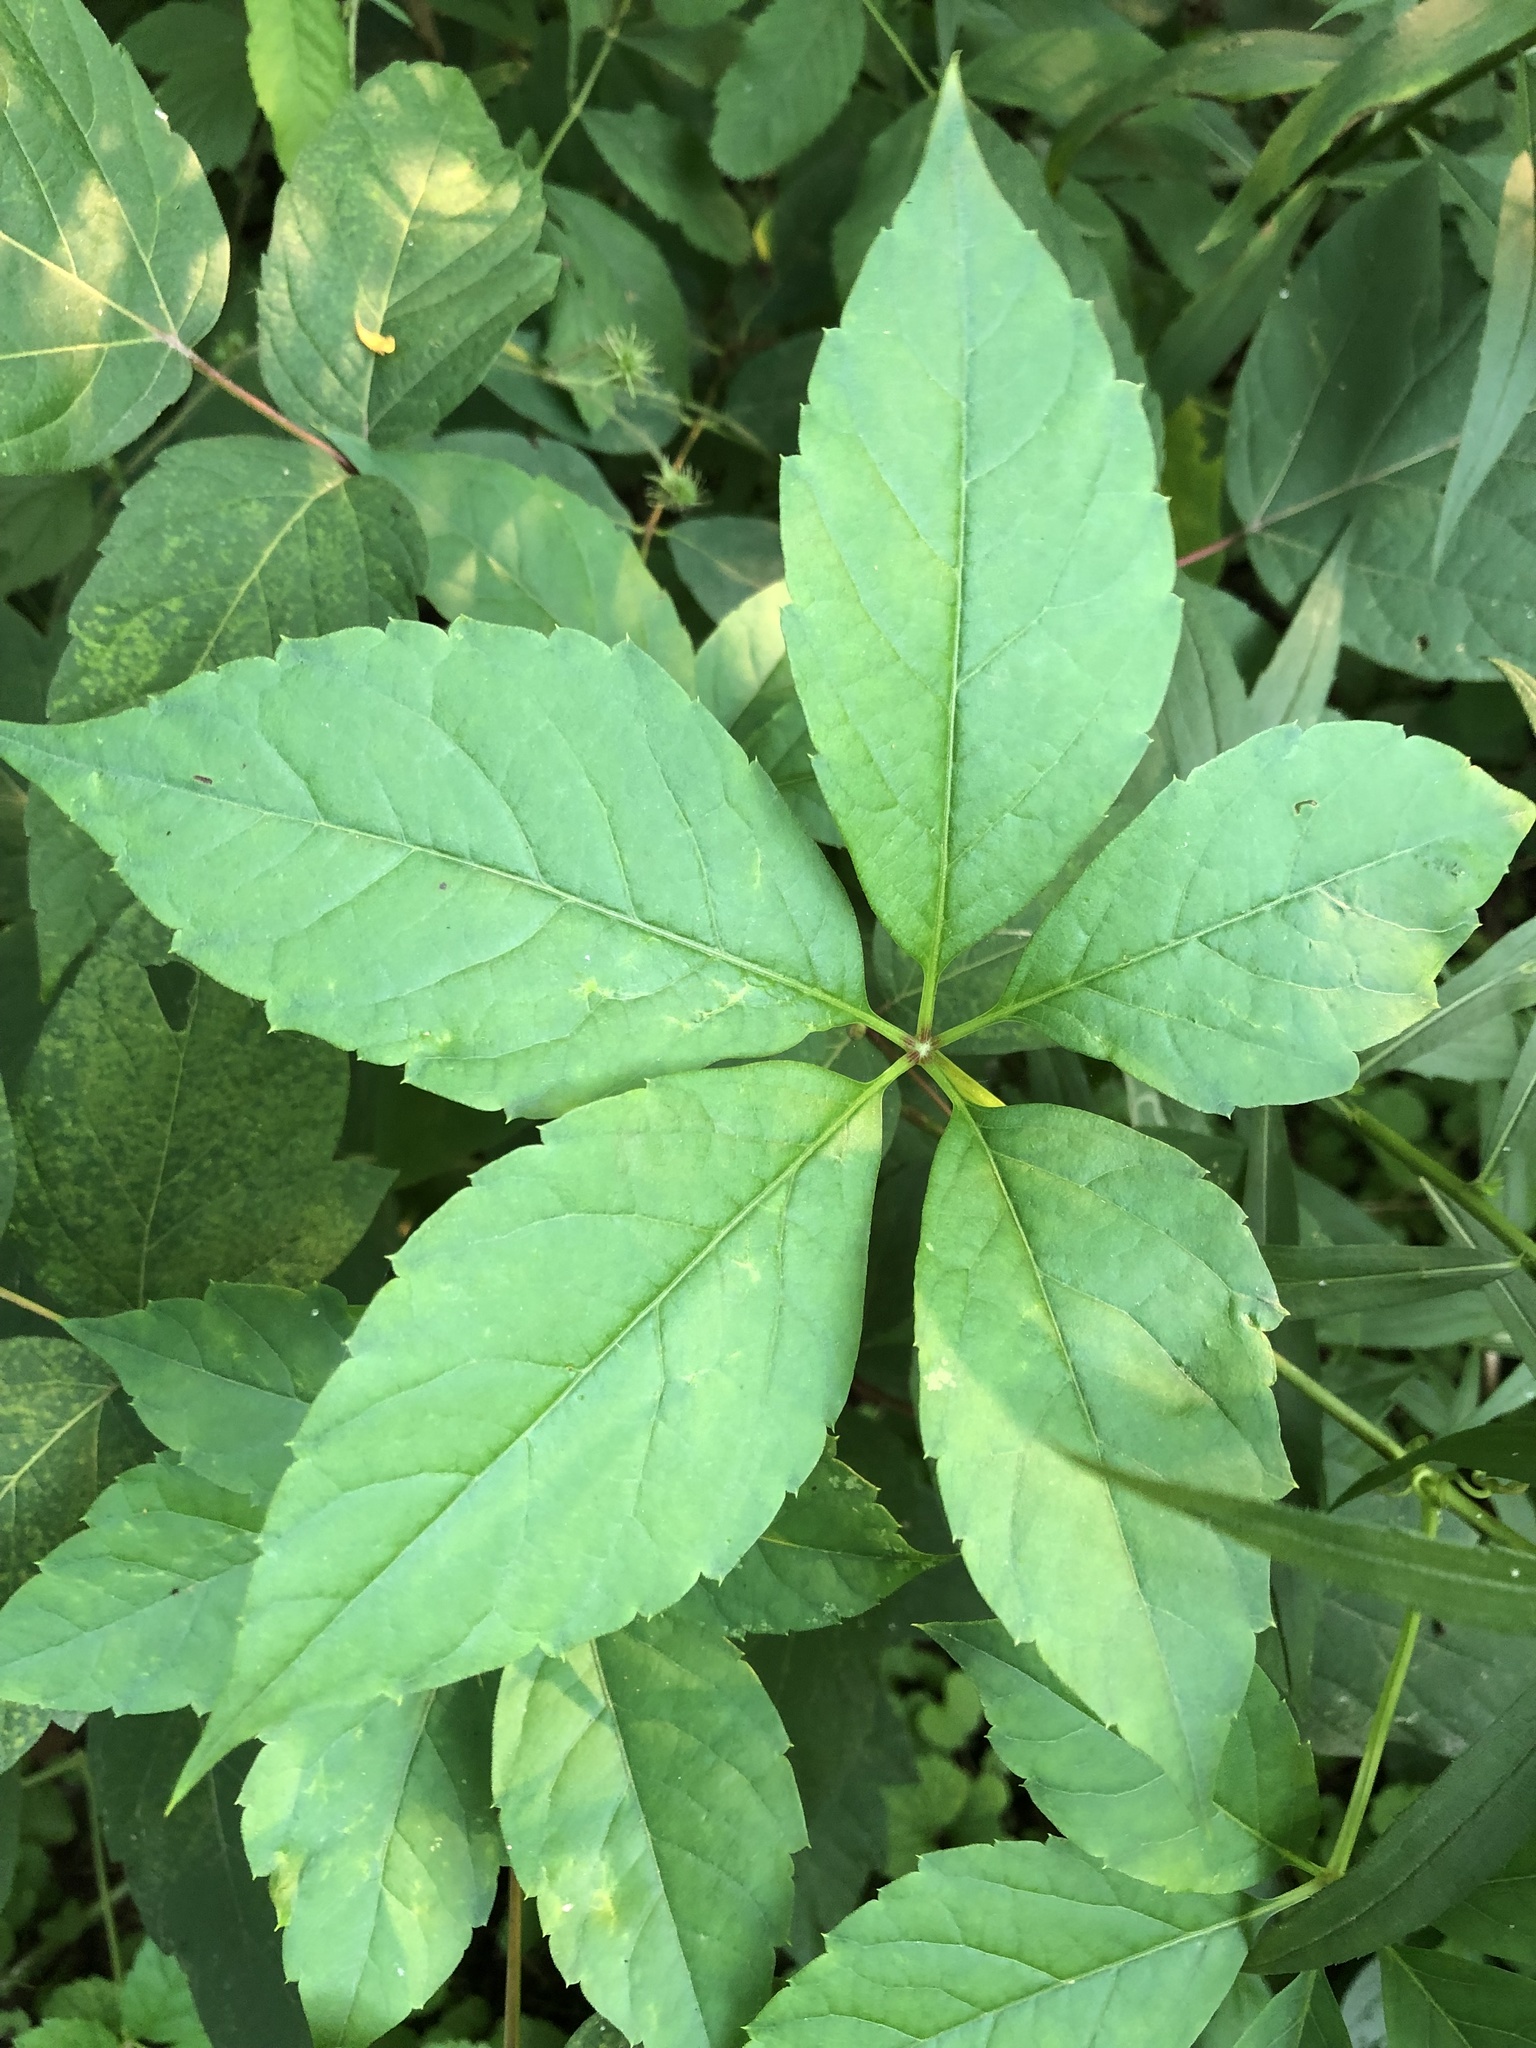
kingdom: Plantae
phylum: Tracheophyta
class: Magnoliopsida
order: Vitales
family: Vitaceae
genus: Parthenocissus
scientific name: Parthenocissus quinquefolia
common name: Virginia-creeper
